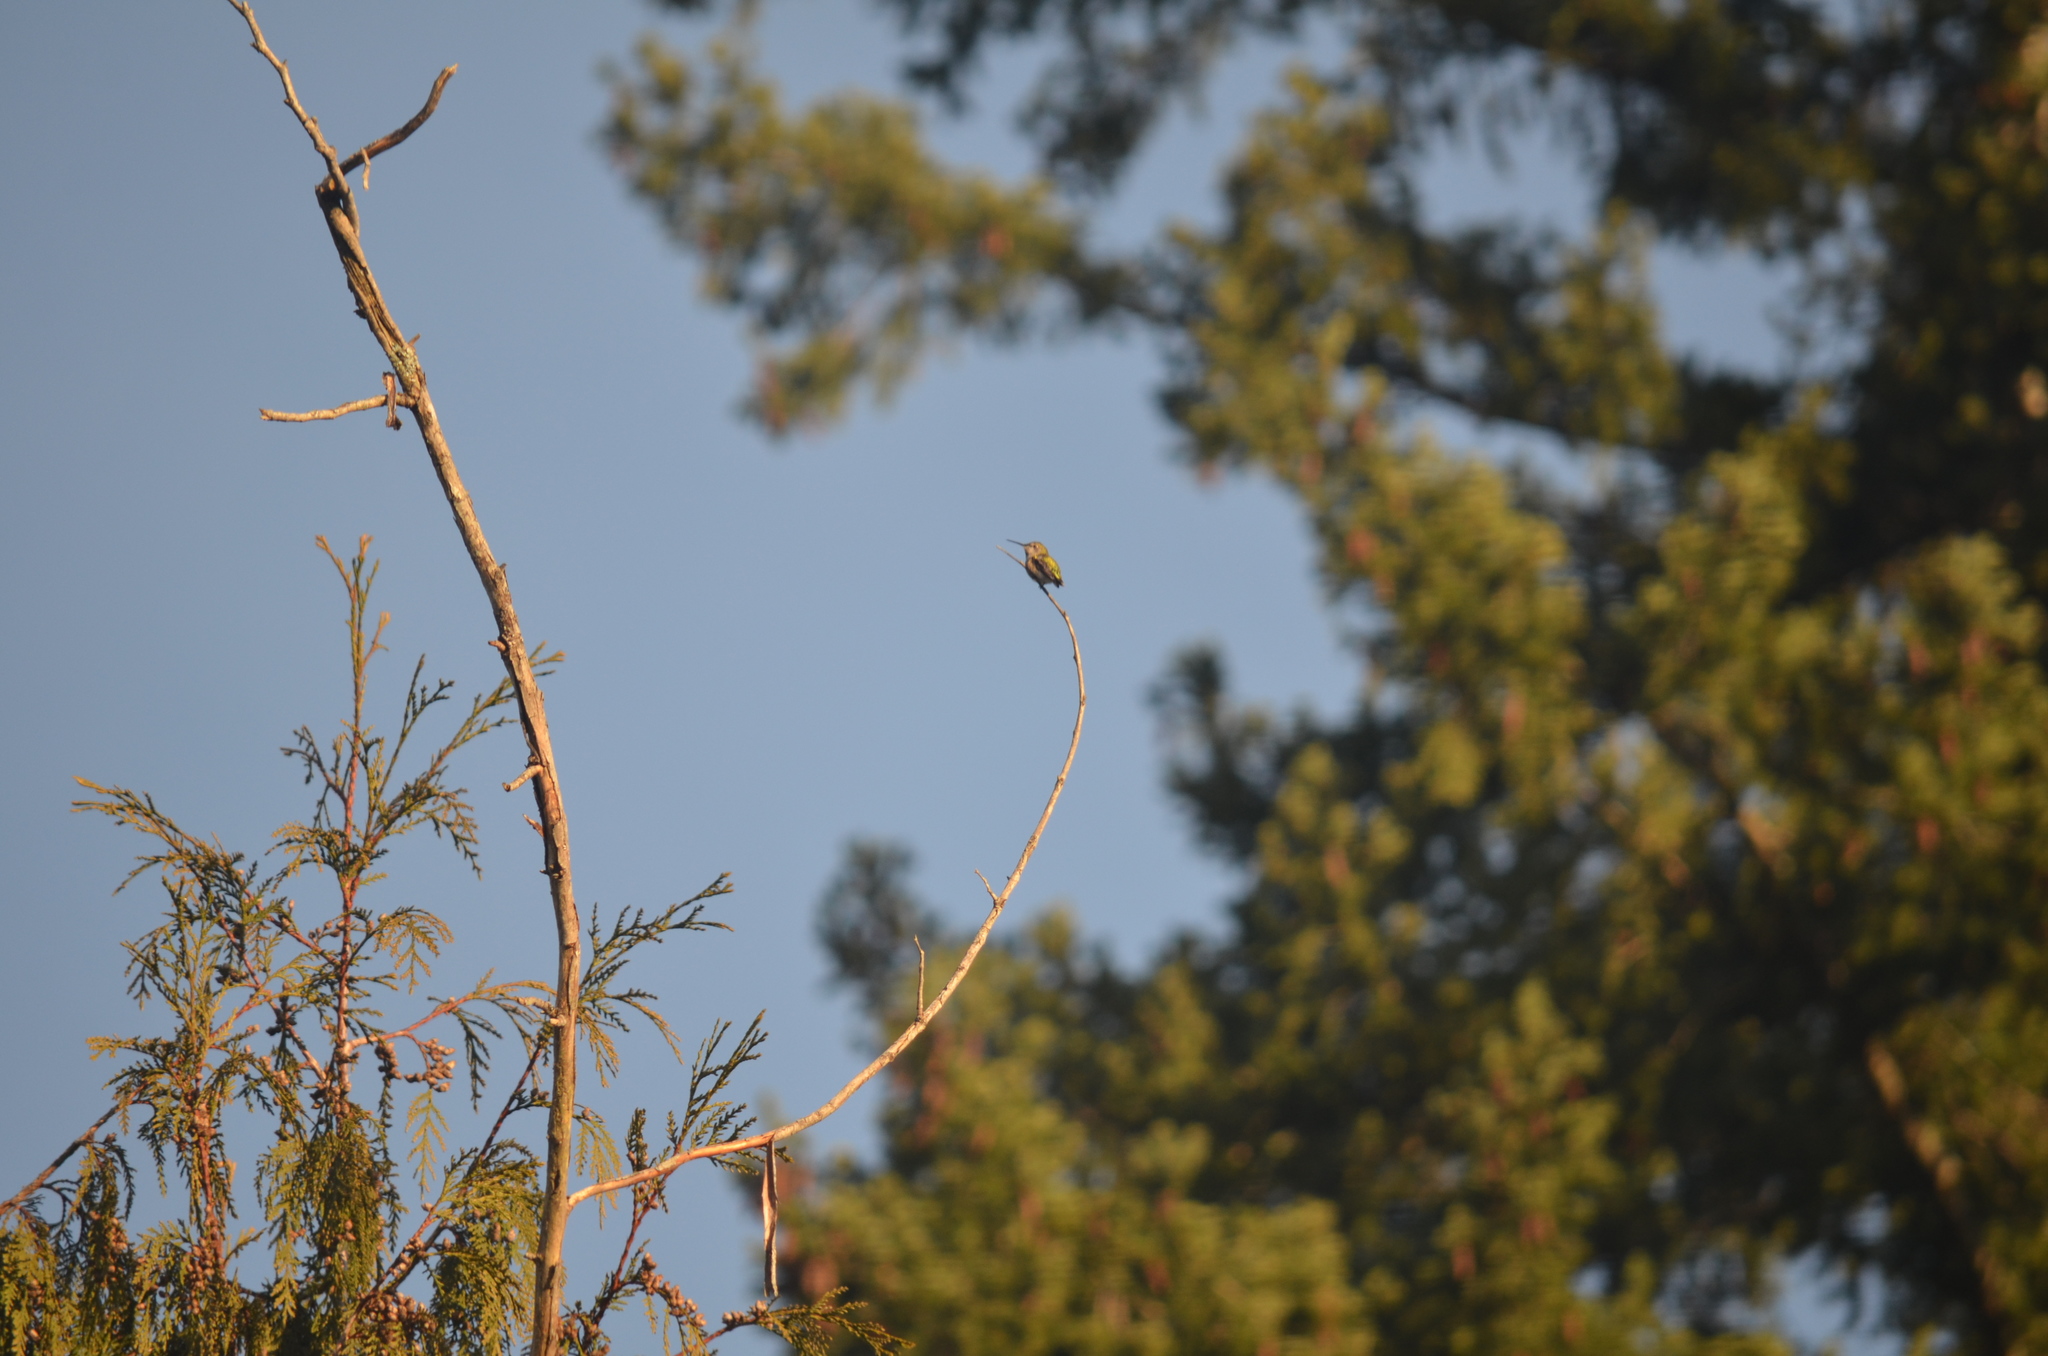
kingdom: Animalia
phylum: Chordata
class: Aves
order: Apodiformes
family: Trochilidae
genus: Calypte
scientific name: Calypte anna
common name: Anna's hummingbird
